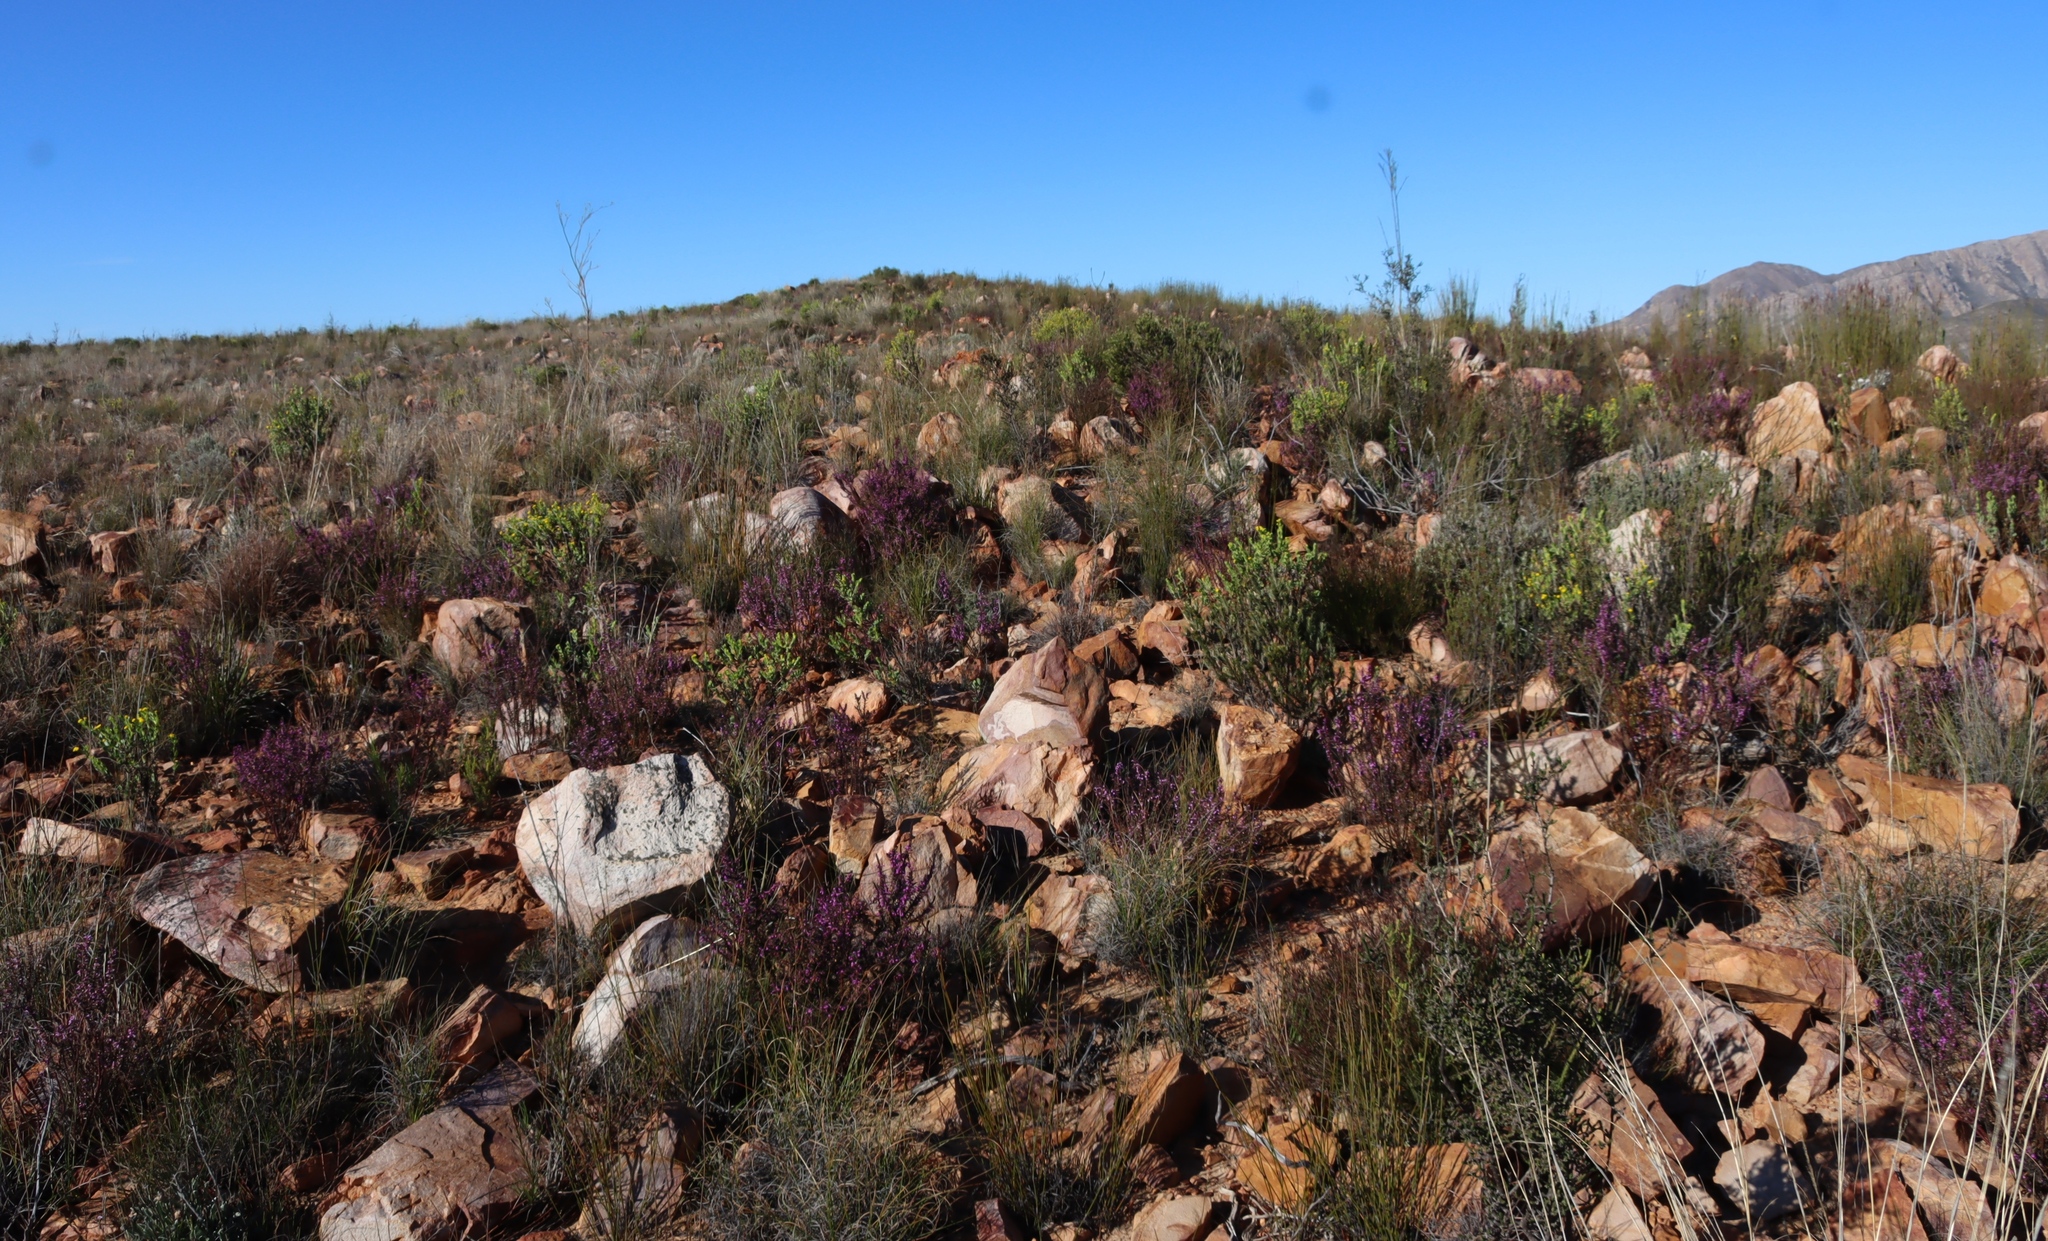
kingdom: Plantae
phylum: Tracheophyta
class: Magnoliopsida
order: Fabales
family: Polygalaceae
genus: Muraltia
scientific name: Muraltia juniperifolia
